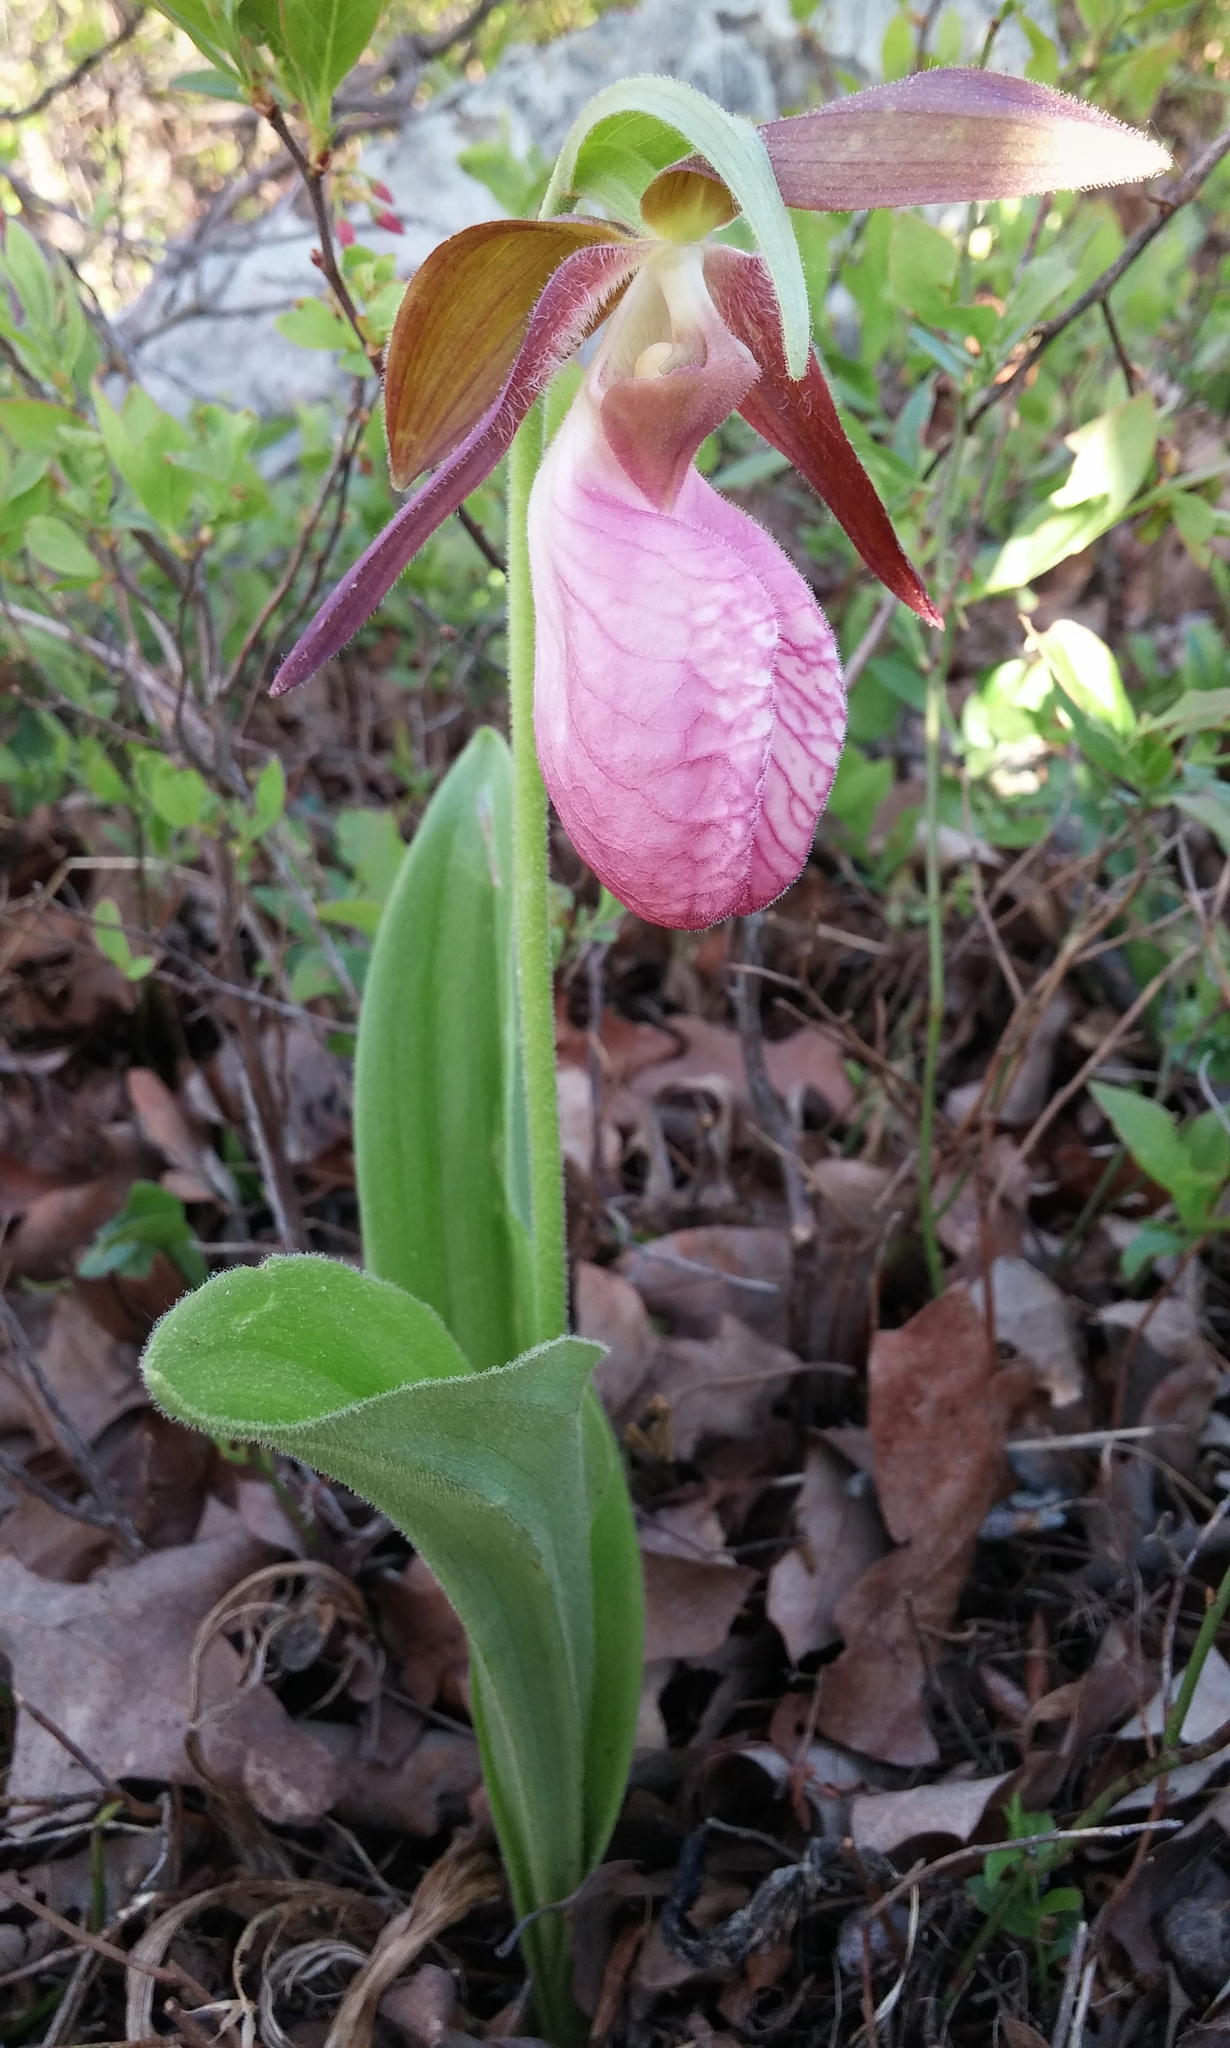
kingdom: Plantae
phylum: Tracheophyta
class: Liliopsida
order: Asparagales
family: Orchidaceae
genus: Cypripedium
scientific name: Cypripedium acaule
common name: Pink lady's-slipper
